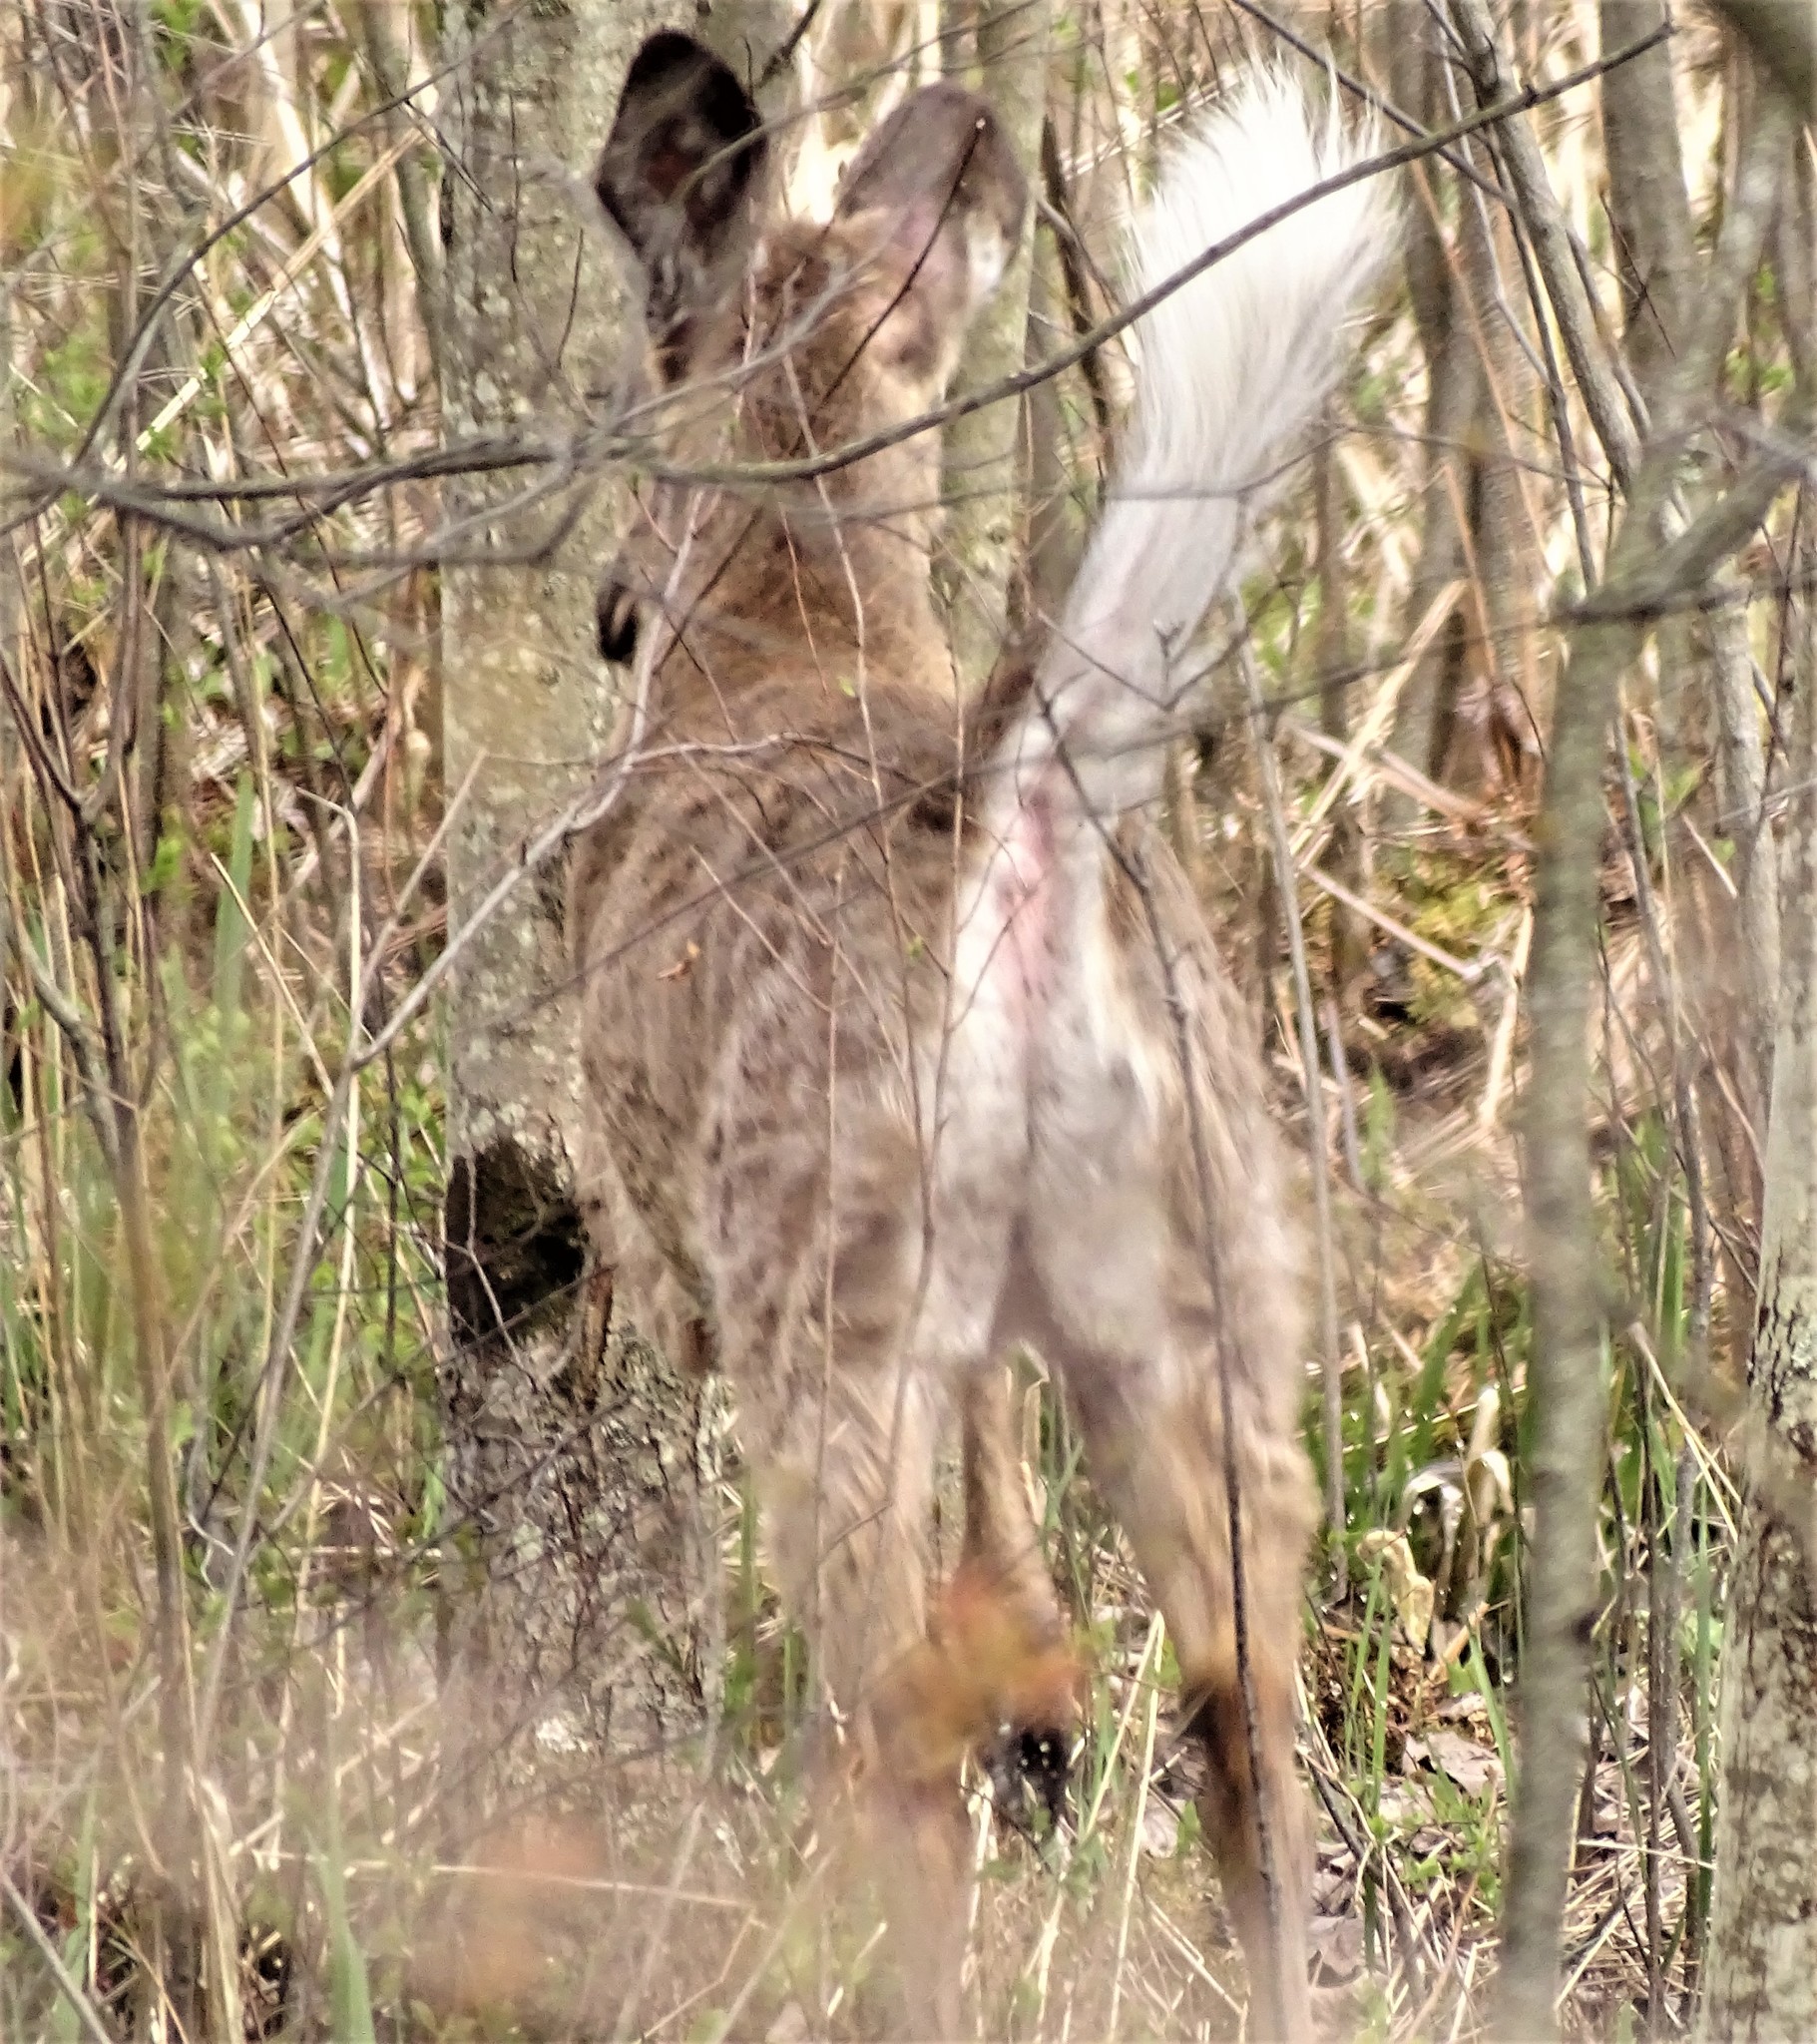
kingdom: Animalia
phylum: Chordata
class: Mammalia
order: Artiodactyla
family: Cervidae
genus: Odocoileus
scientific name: Odocoileus virginianus
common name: White-tailed deer
